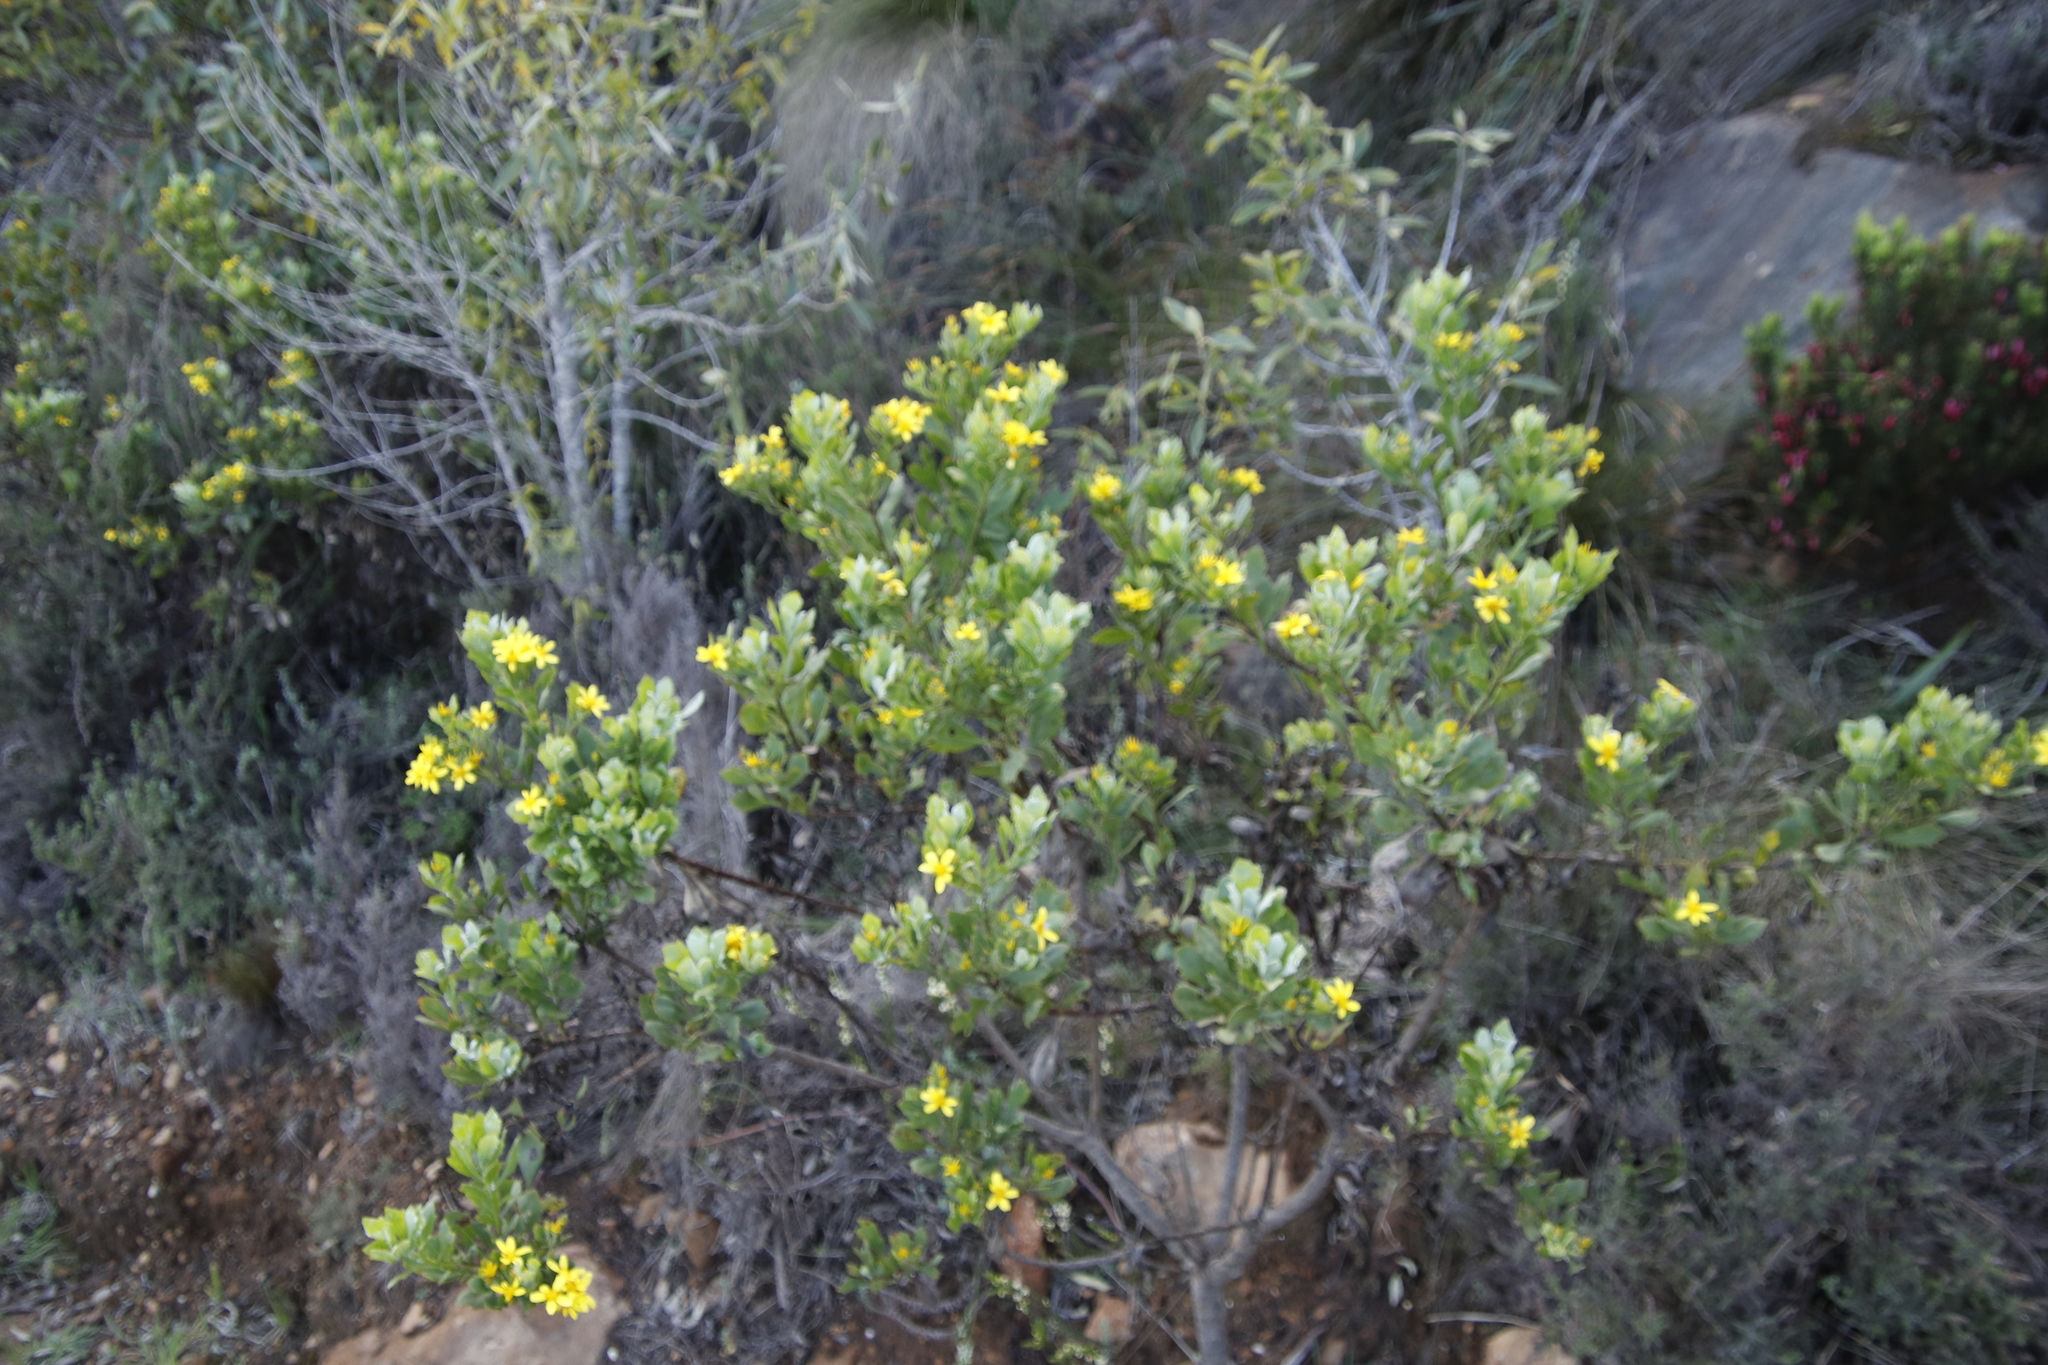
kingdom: Plantae
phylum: Tracheophyta
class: Magnoliopsida
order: Asterales
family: Asteraceae
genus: Osteospermum
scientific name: Osteospermum moniliferum
